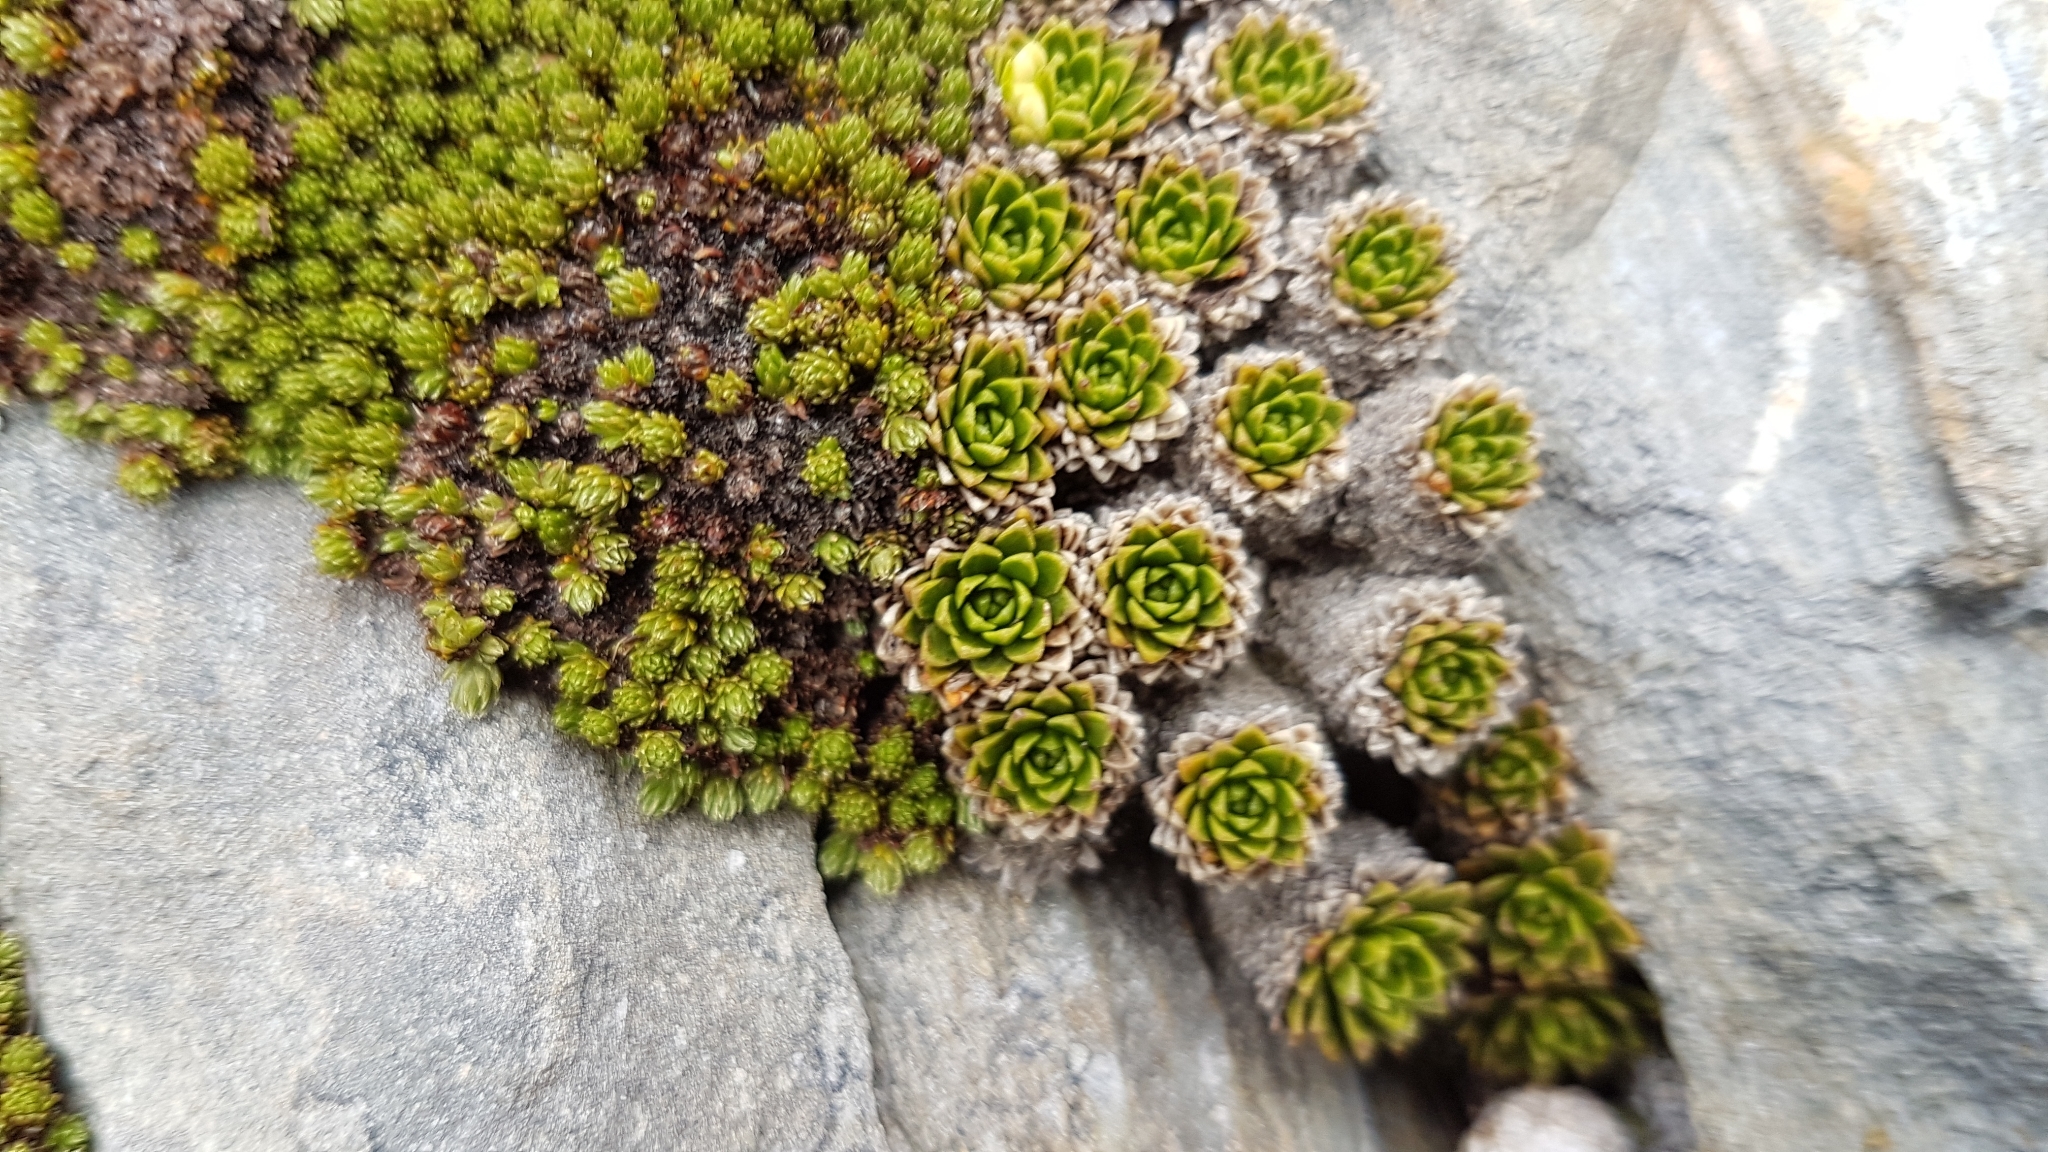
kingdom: Plantae
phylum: Tracheophyta
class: Magnoliopsida
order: Caryophyllales
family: Montiaceae
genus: Hectorella
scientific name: Hectorella caespitosa
